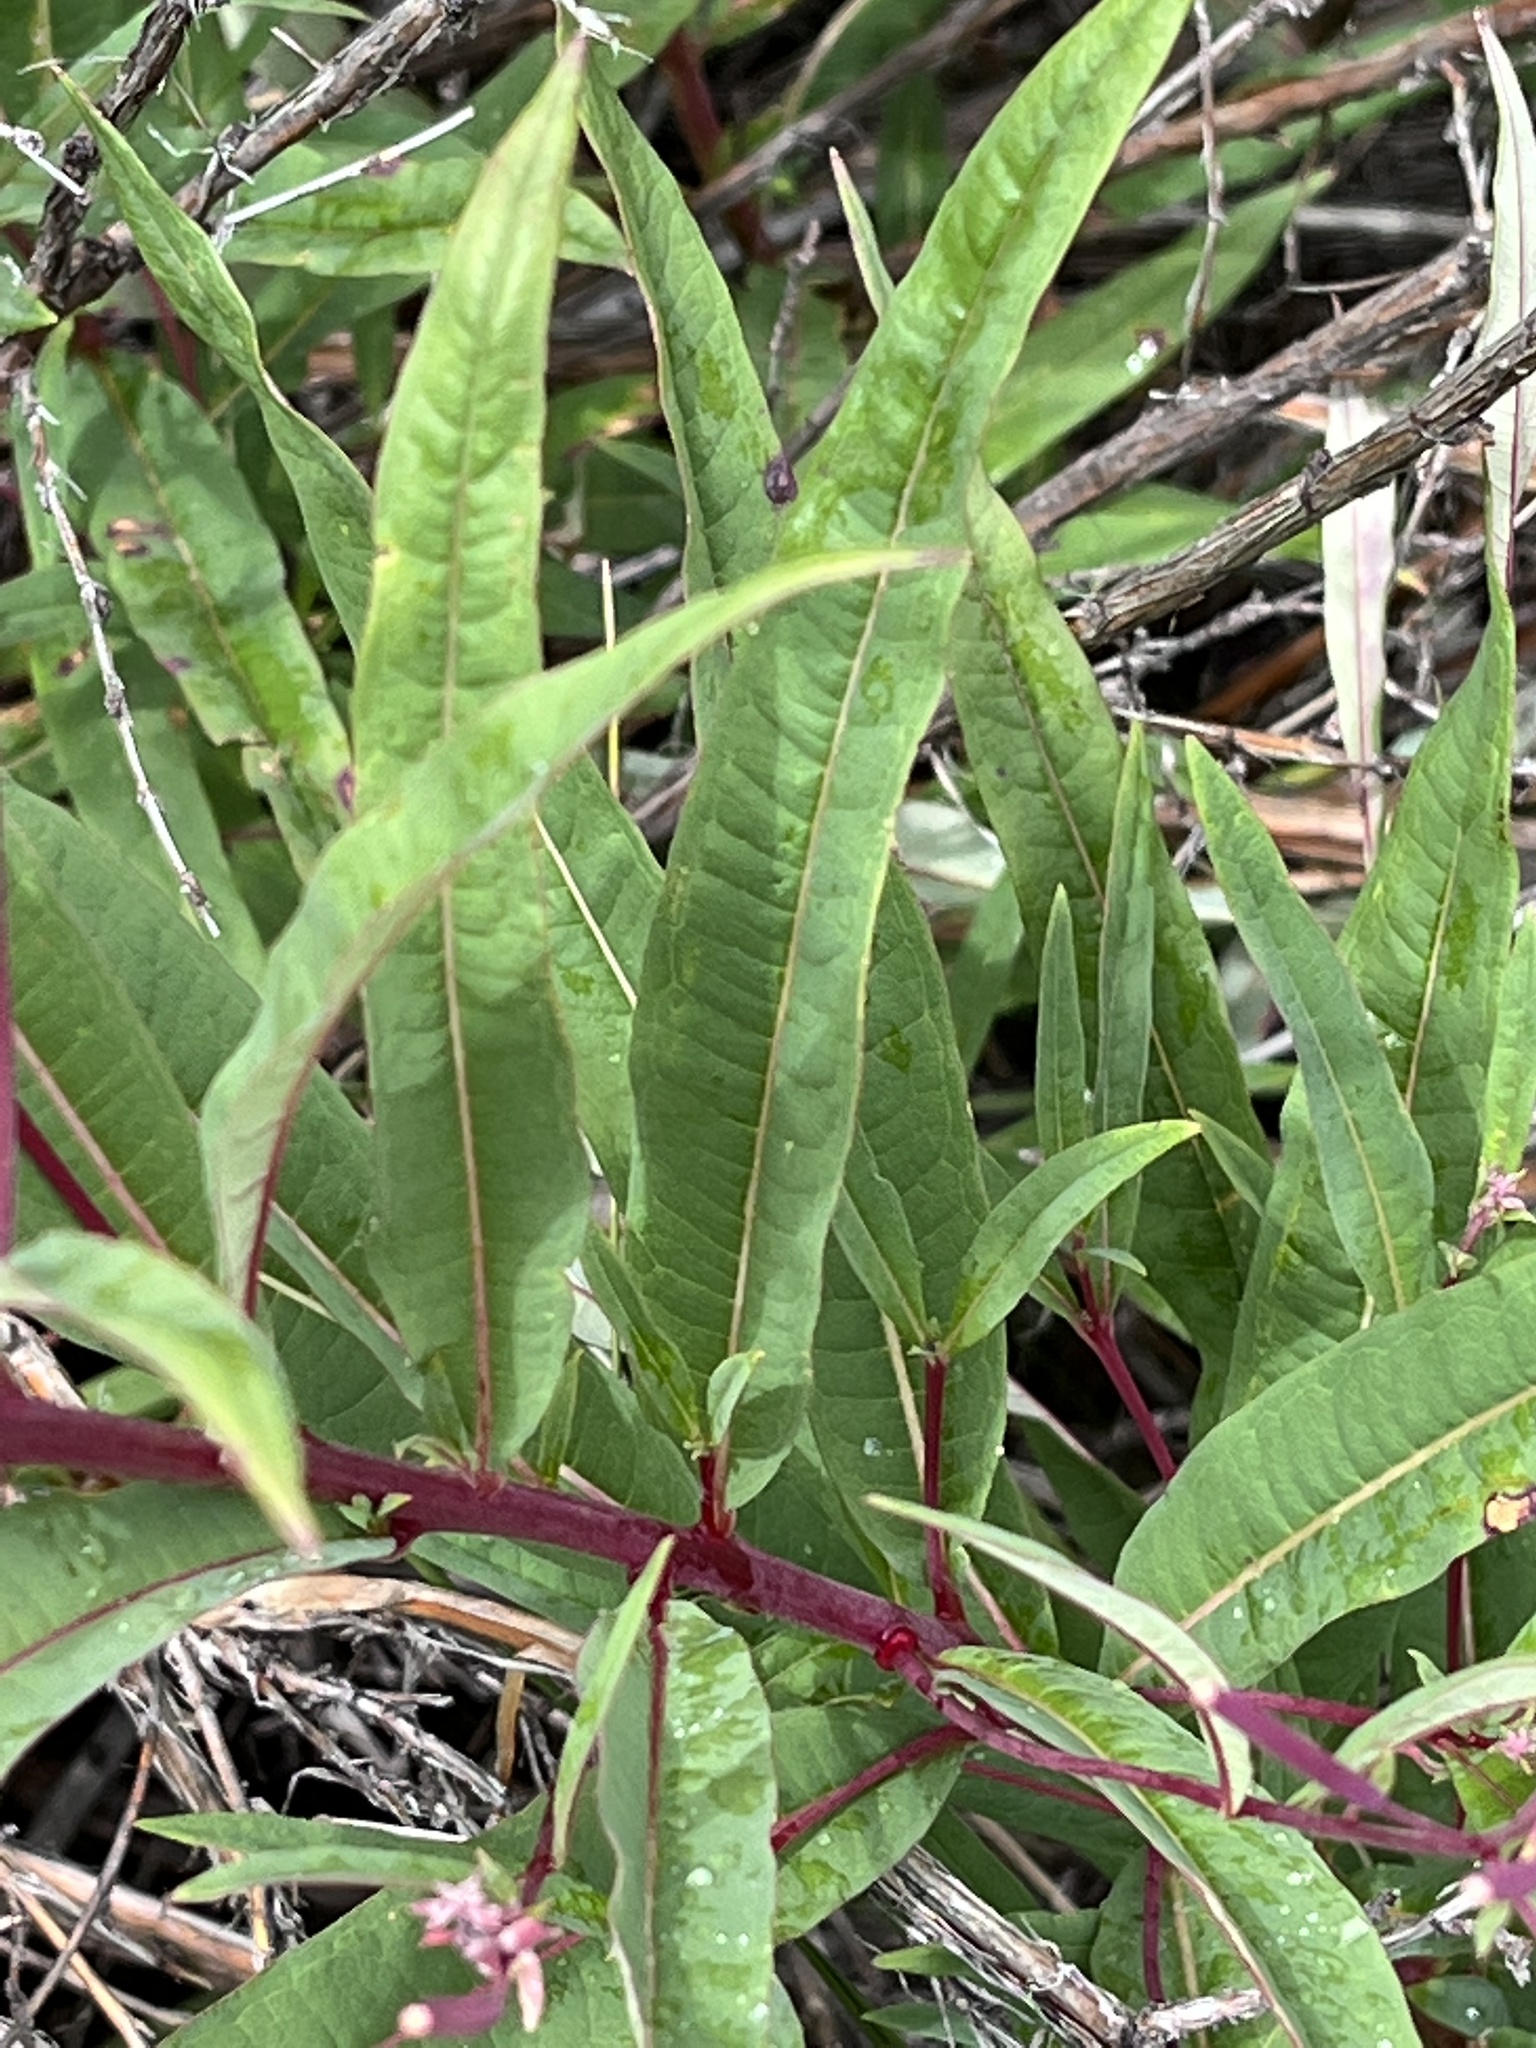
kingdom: Plantae
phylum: Tracheophyta
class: Magnoliopsida
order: Myrtales
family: Onagraceae
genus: Chamaenerion
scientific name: Chamaenerion angustifolium
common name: Fireweed
